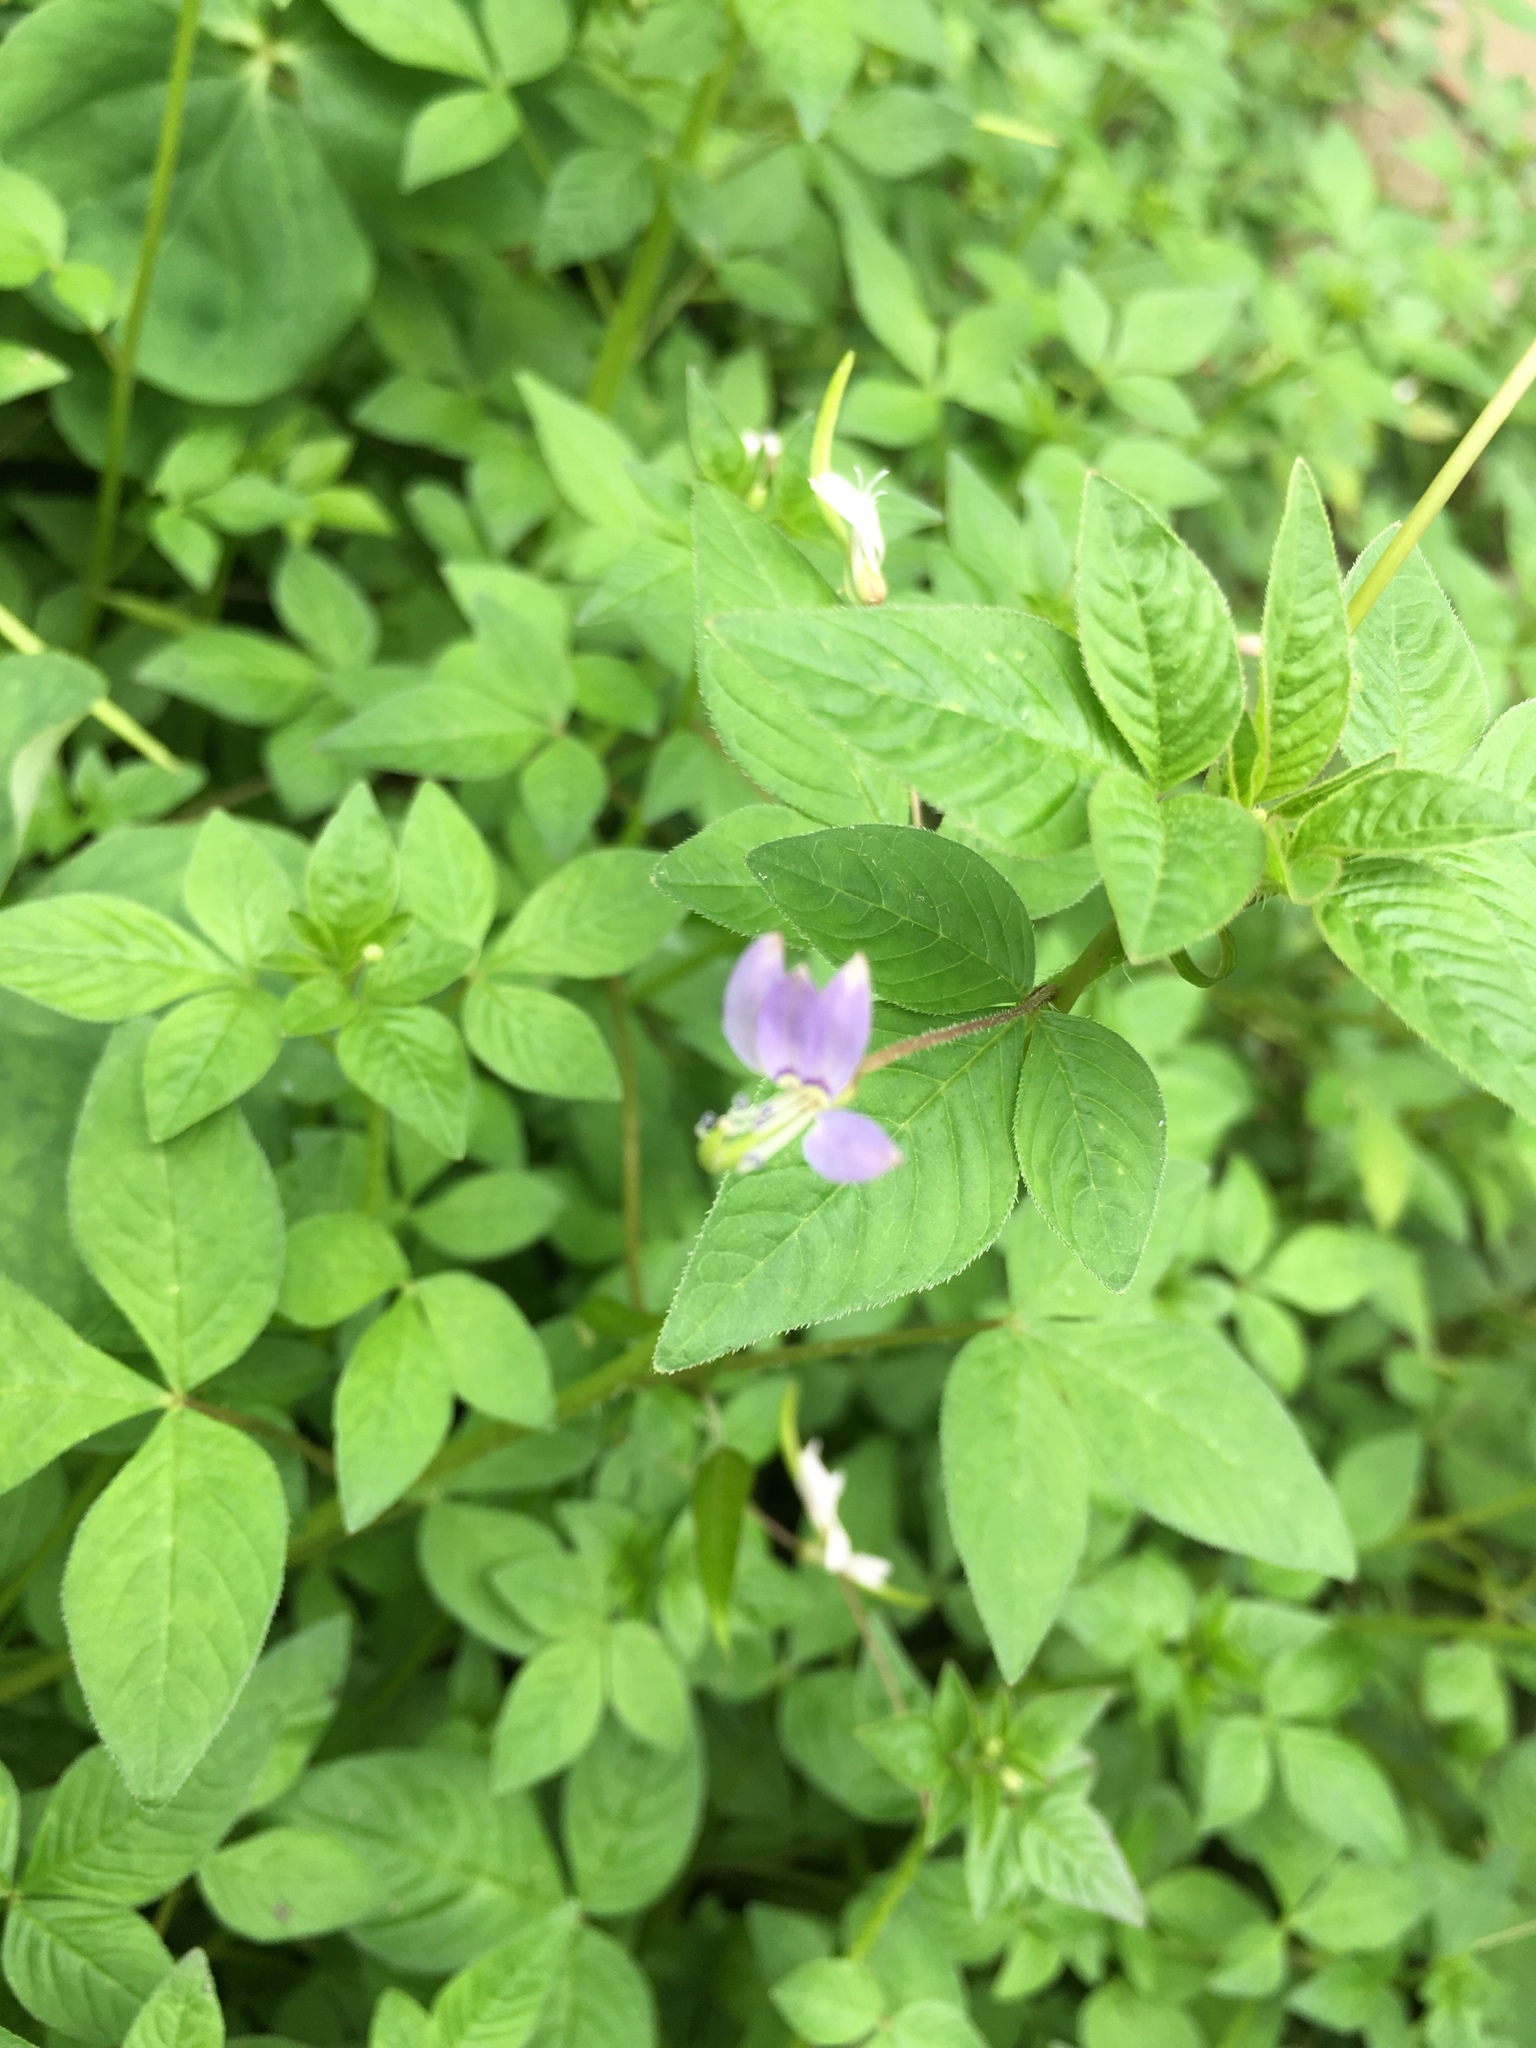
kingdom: Plantae
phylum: Tracheophyta
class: Magnoliopsida
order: Brassicales
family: Cleomaceae
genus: Sieruela
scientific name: Sieruela rutidosperma
